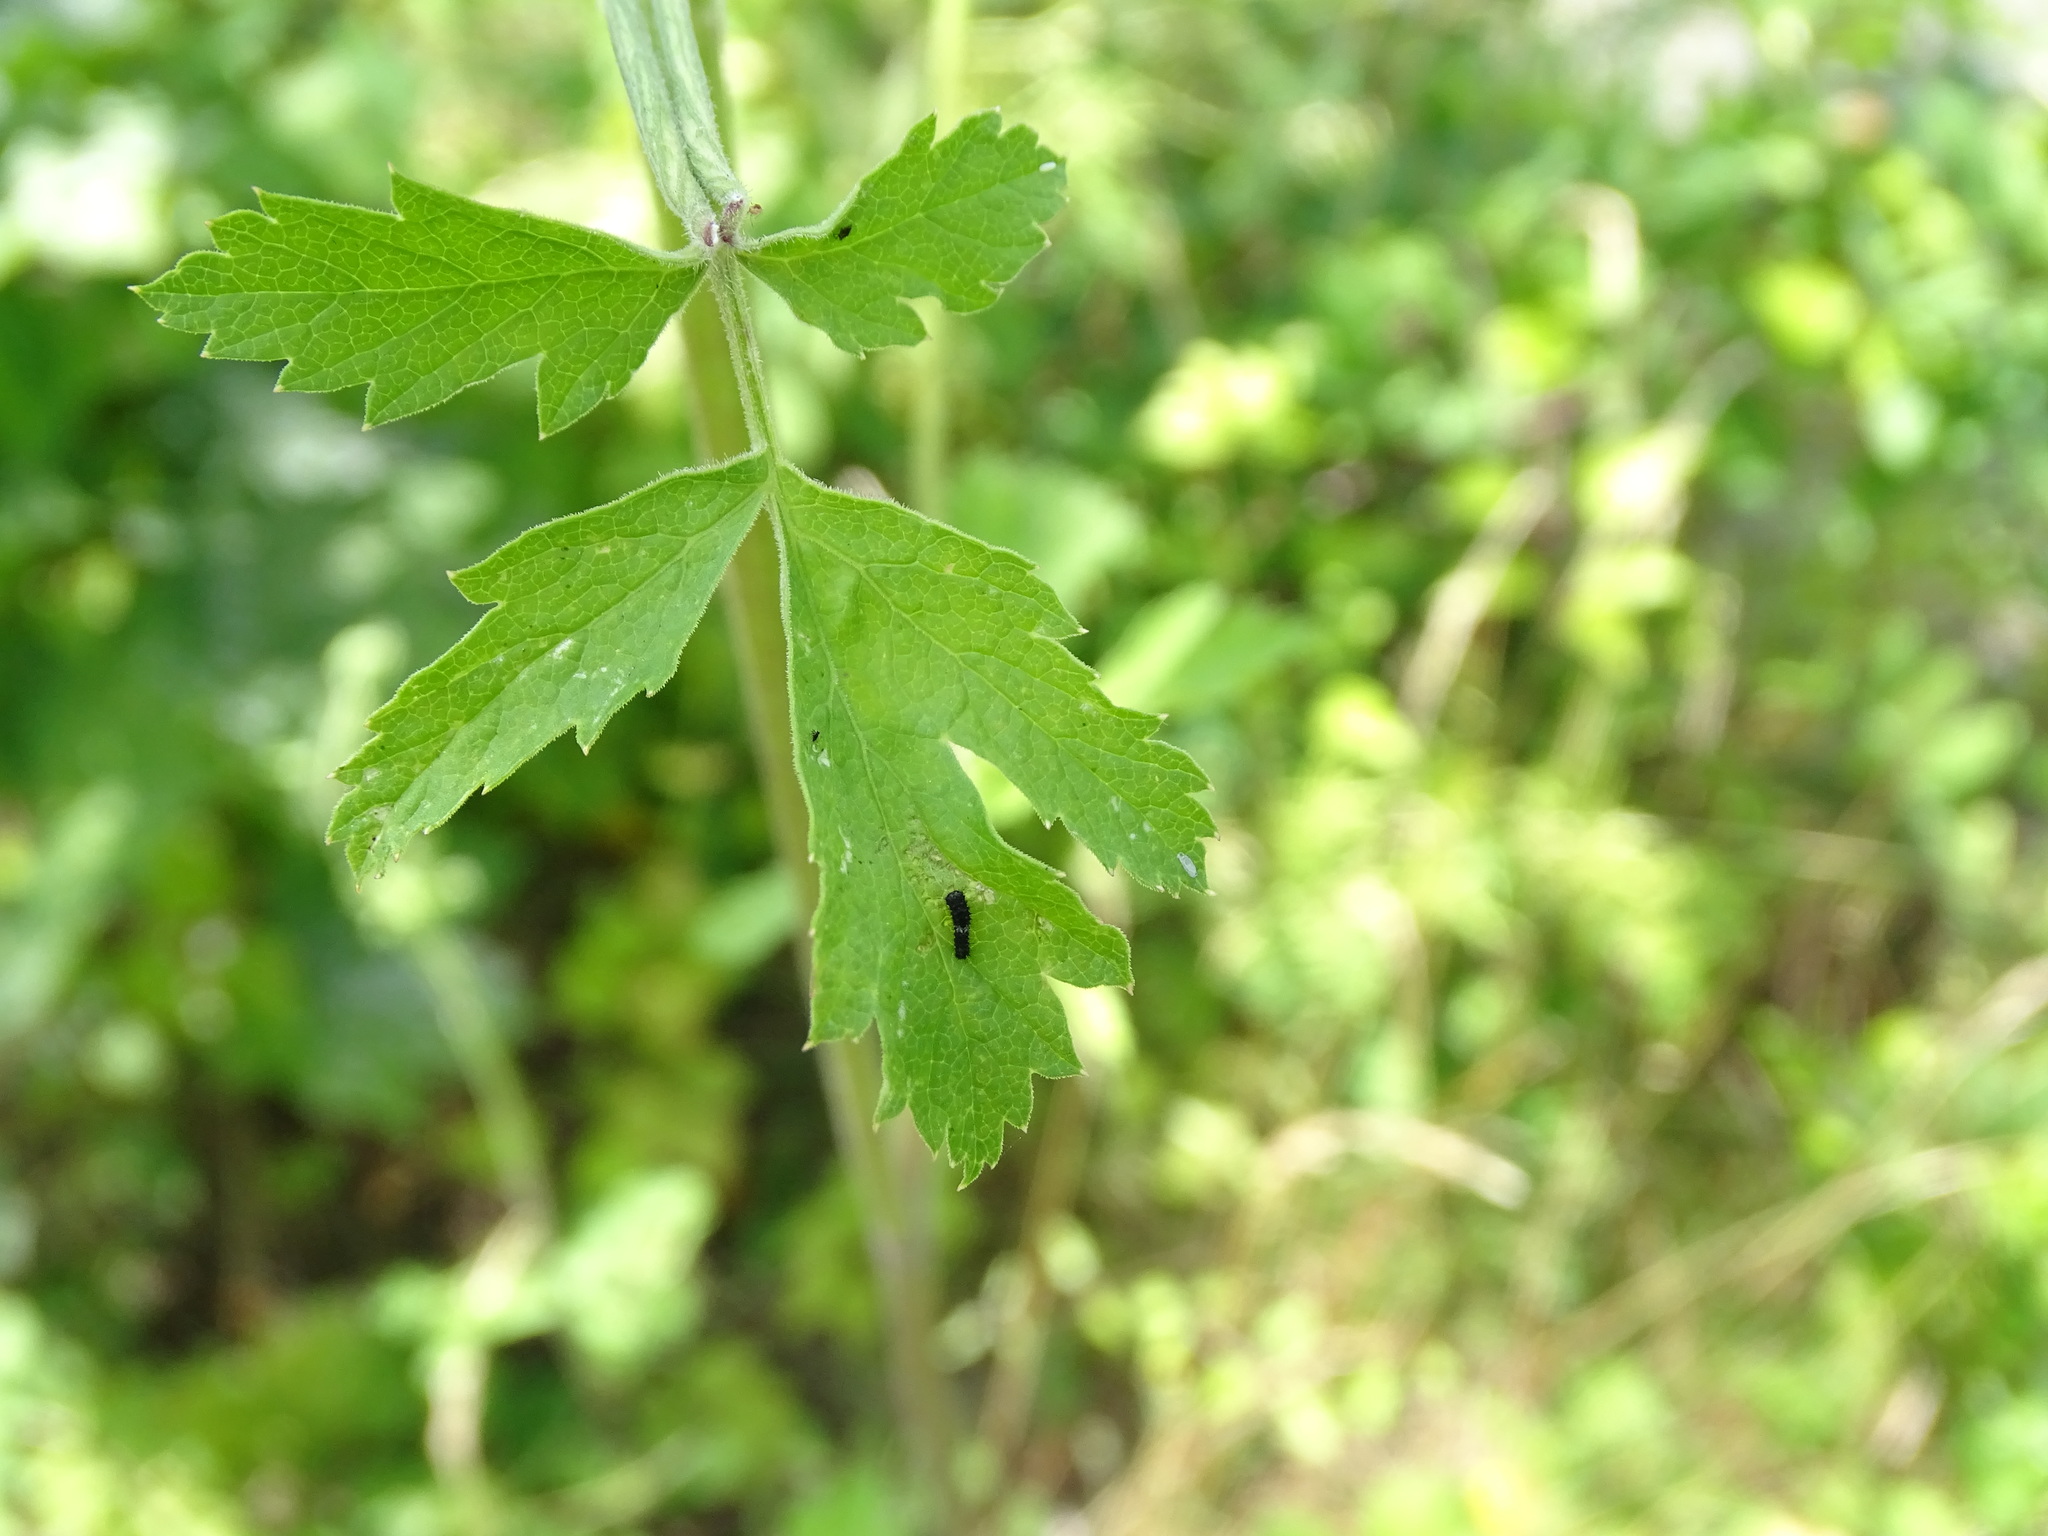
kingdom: Animalia
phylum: Arthropoda
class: Insecta
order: Lepidoptera
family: Papilionidae
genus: Papilio
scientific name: Papilio machaon
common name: Swallowtail
